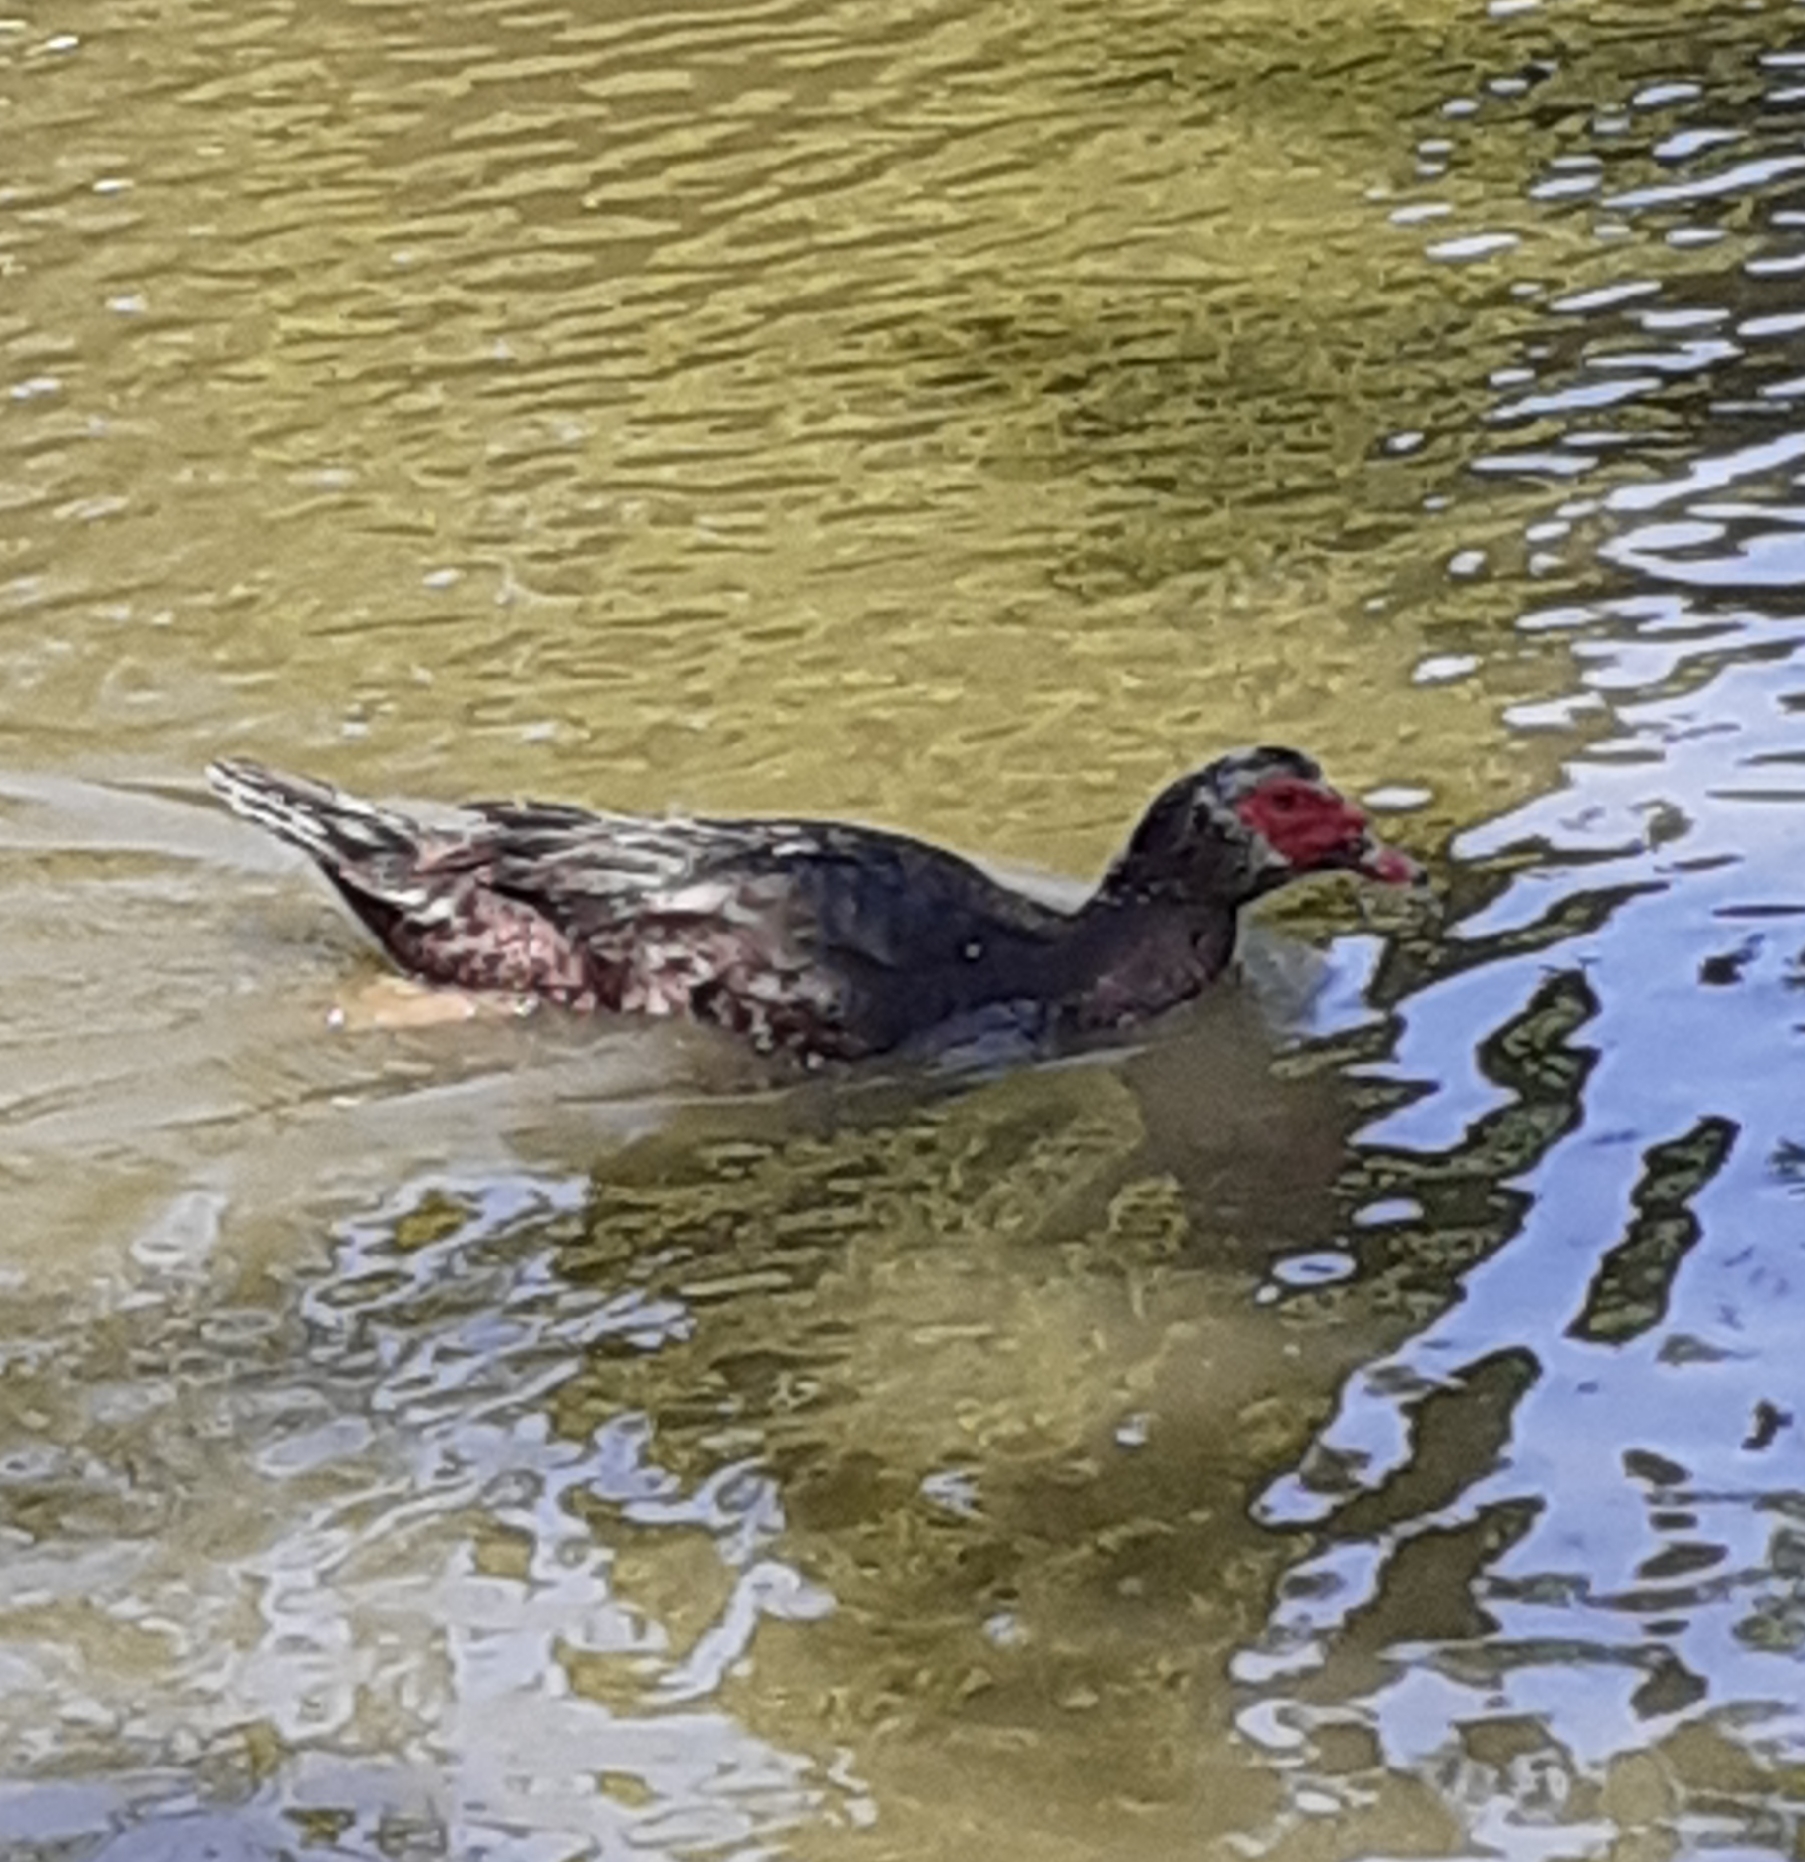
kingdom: Animalia
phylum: Chordata
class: Aves
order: Anseriformes
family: Anatidae
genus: Cairina
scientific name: Cairina moschata
